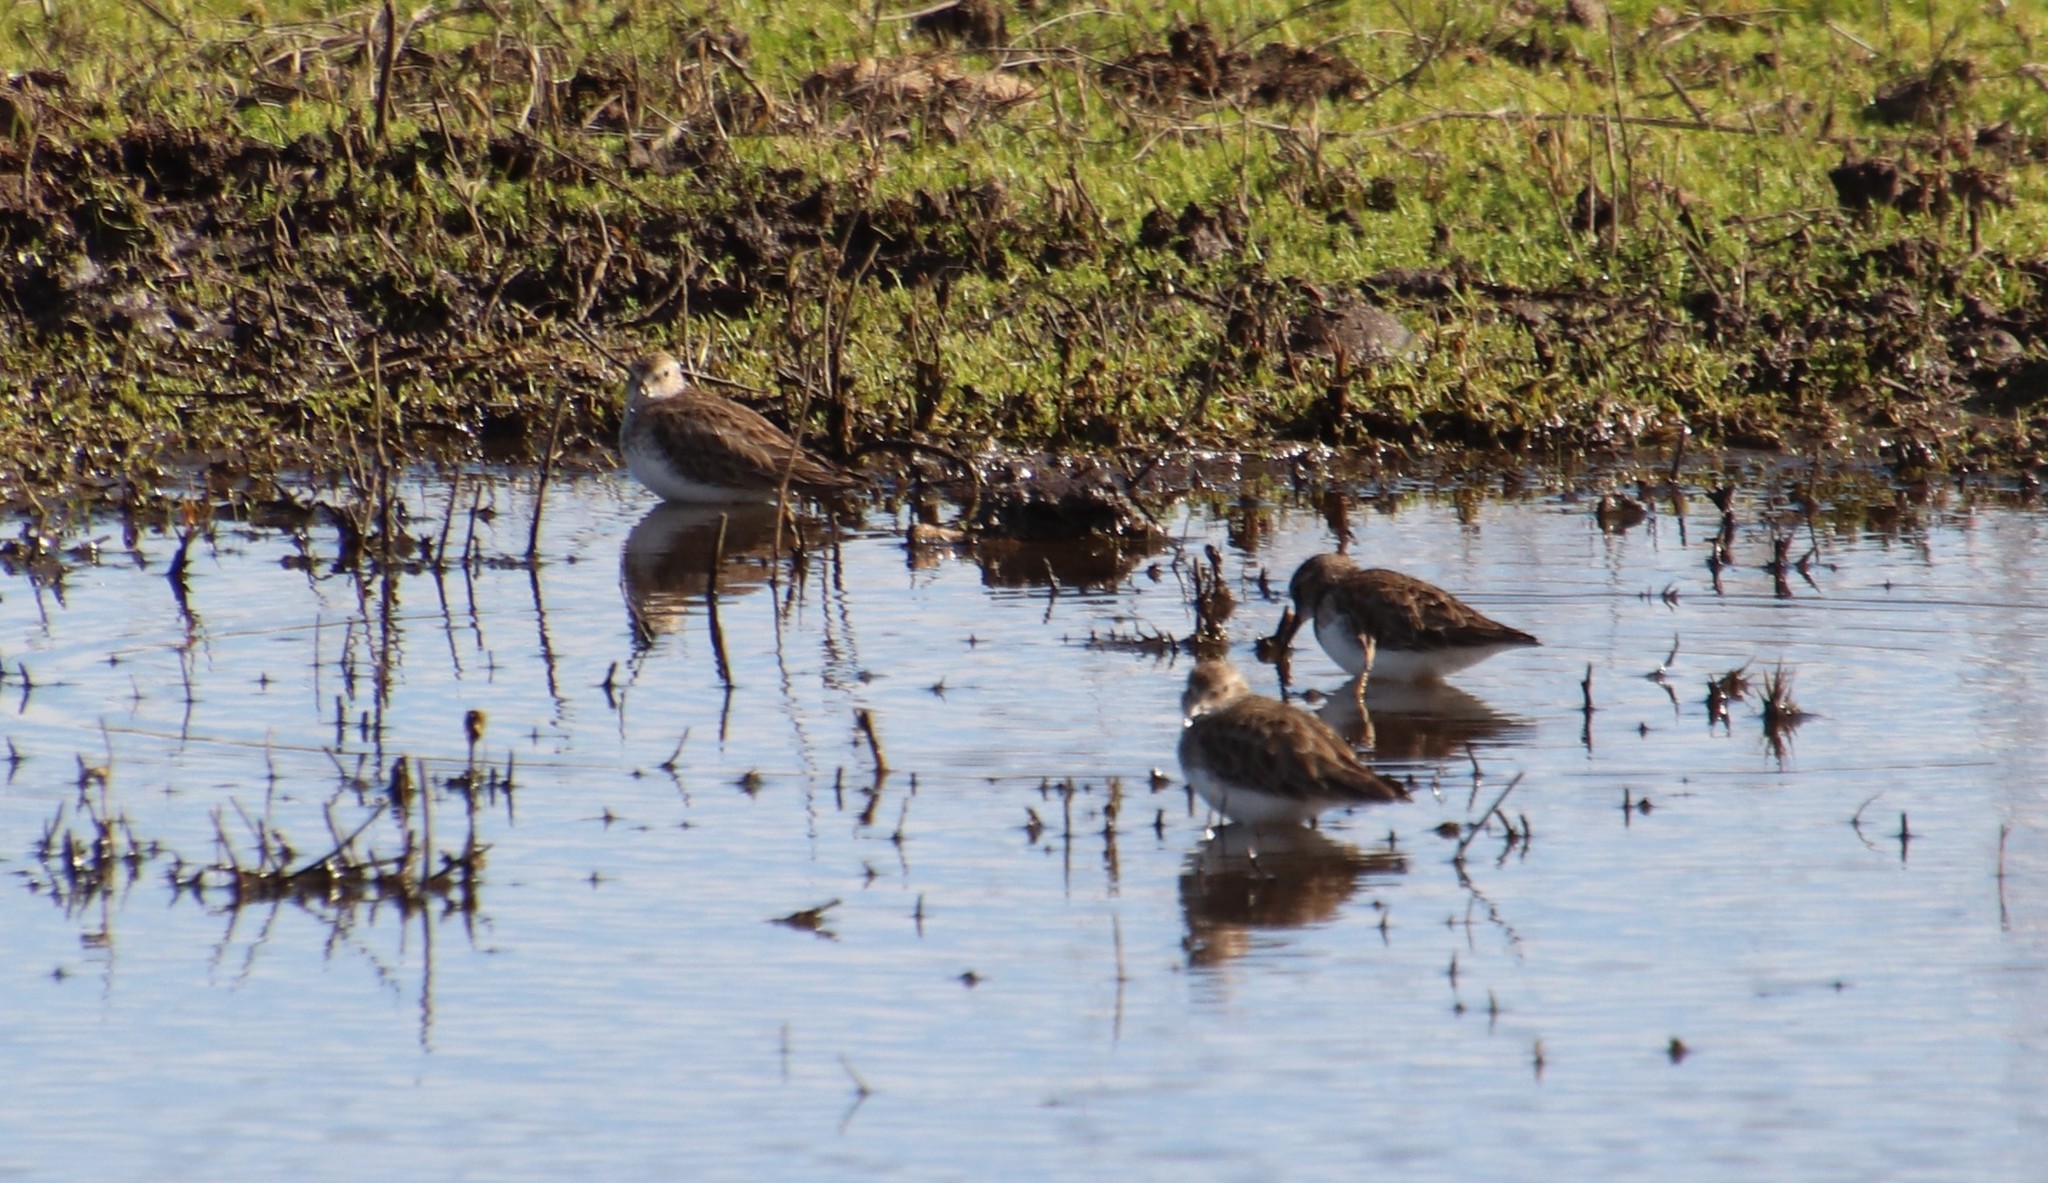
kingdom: Animalia
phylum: Chordata
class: Aves
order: Charadriiformes
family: Scolopacidae
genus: Calidris
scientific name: Calidris minutilla
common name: Least sandpiper
